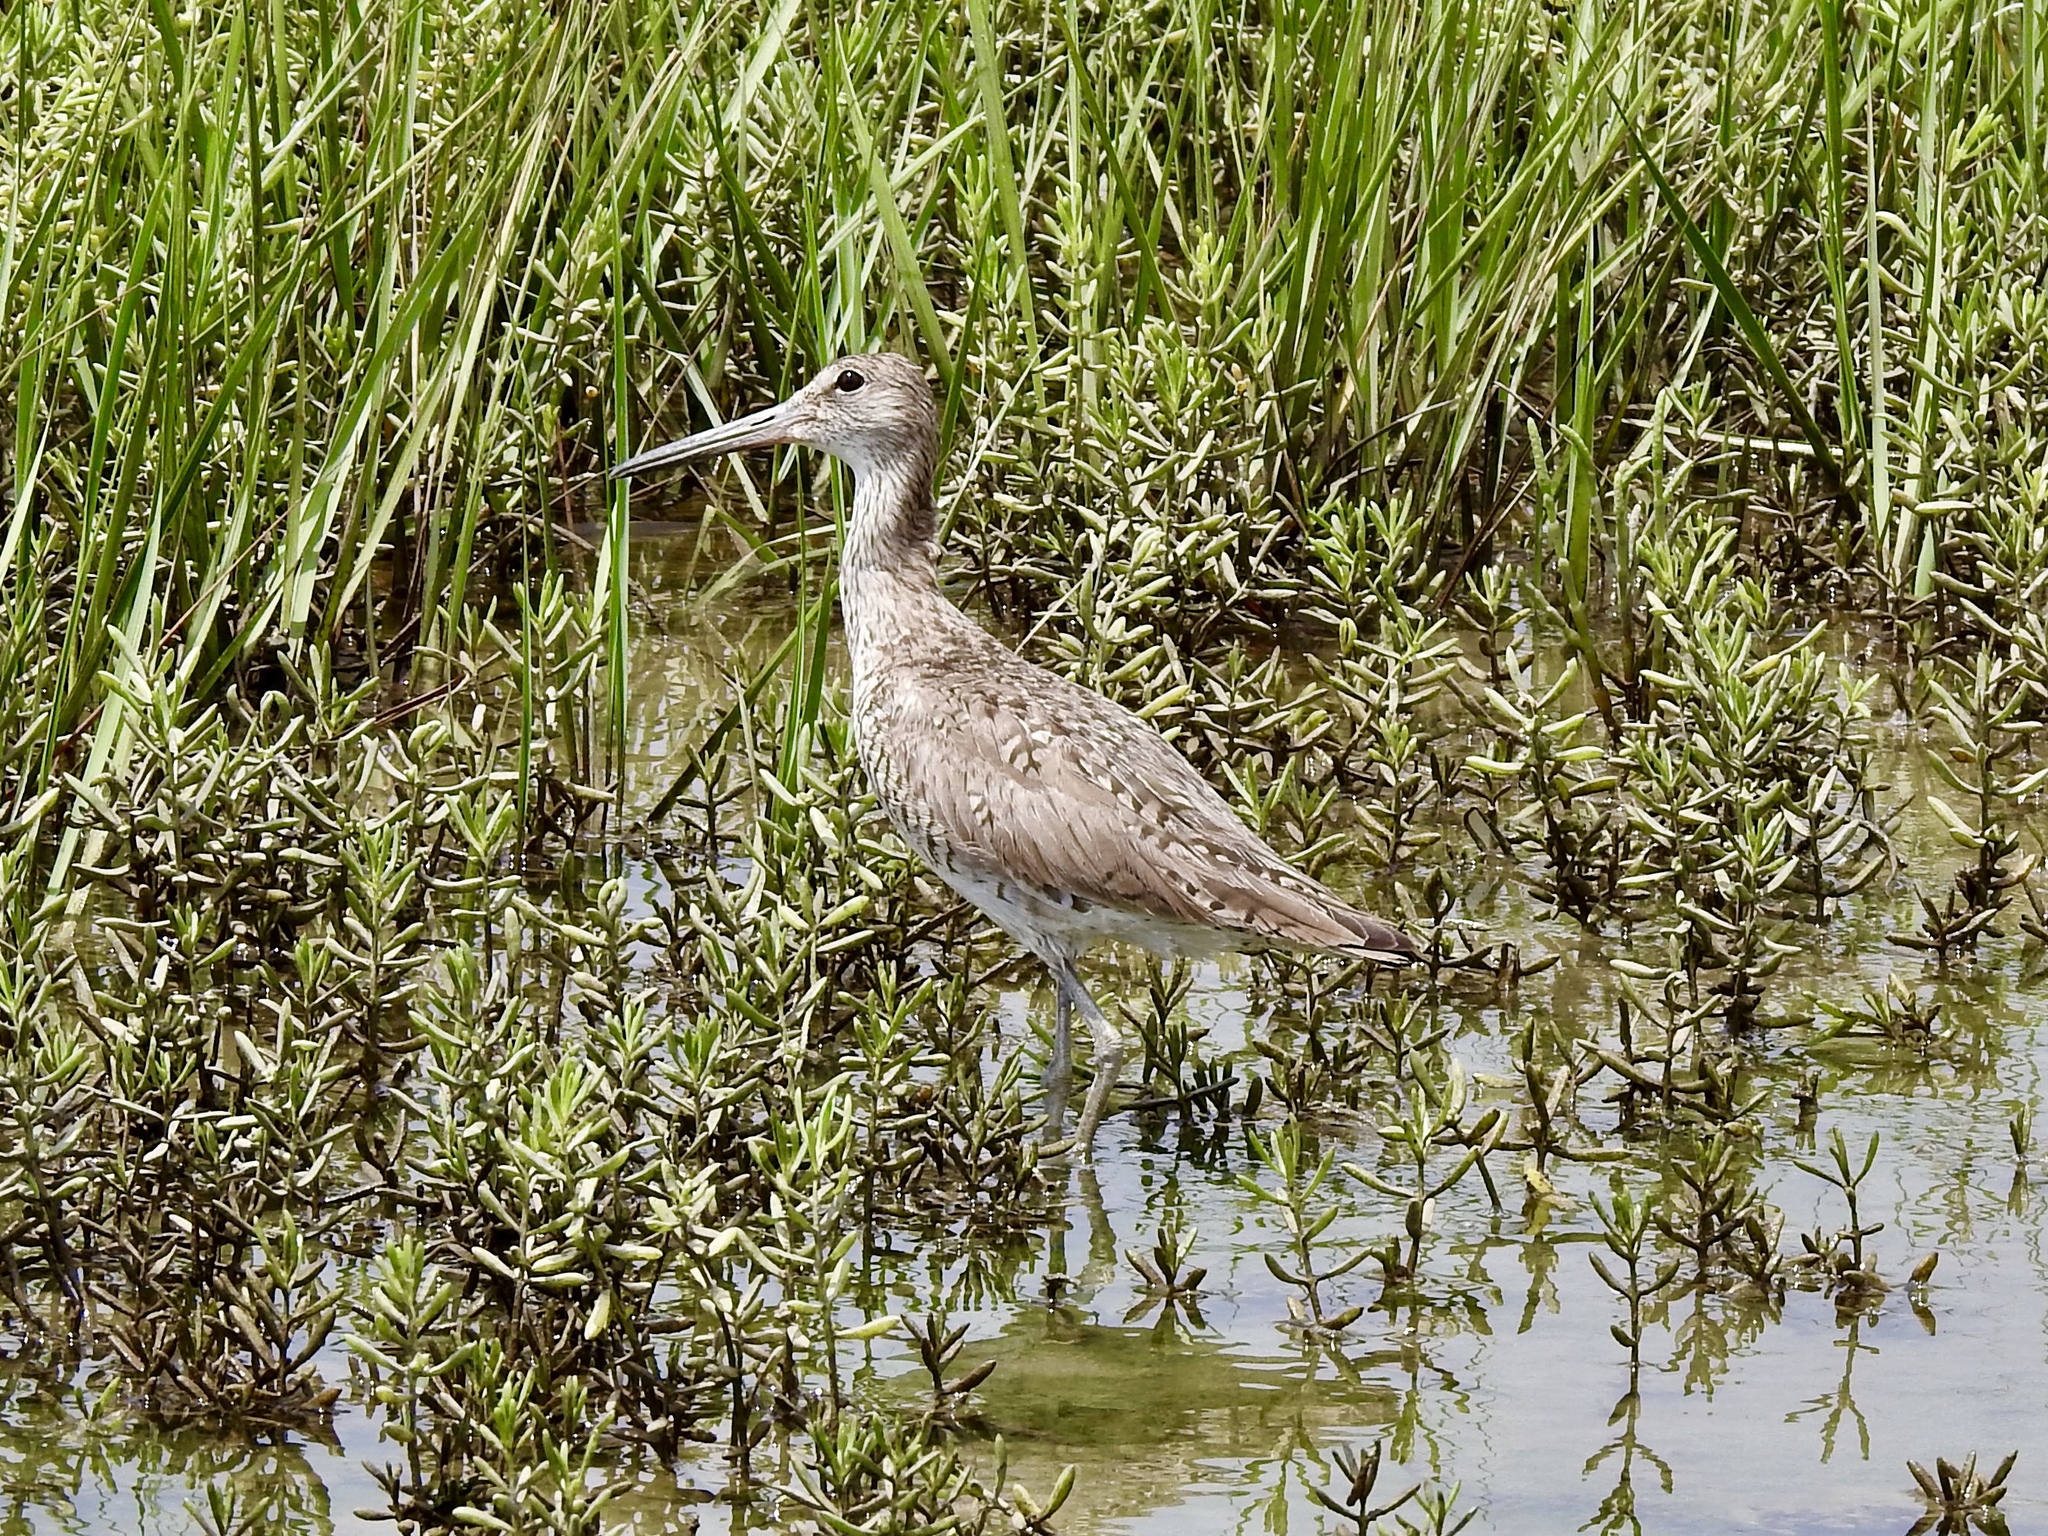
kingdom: Animalia
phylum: Chordata
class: Aves
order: Charadriiformes
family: Scolopacidae
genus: Tringa
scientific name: Tringa semipalmata
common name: Willet
